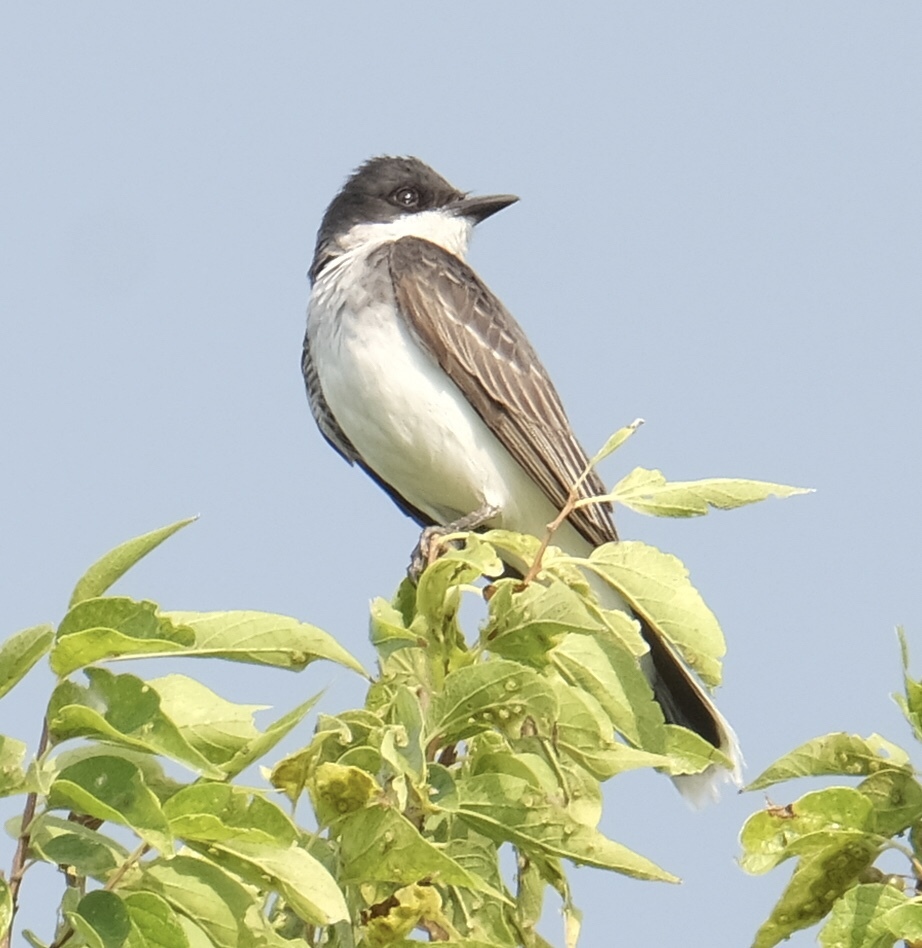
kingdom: Animalia
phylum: Chordata
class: Aves
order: Passeriformes
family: Tyrannidae
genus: Tyrannus
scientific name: Tyrannus tyrannus
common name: Eastern kingbird
